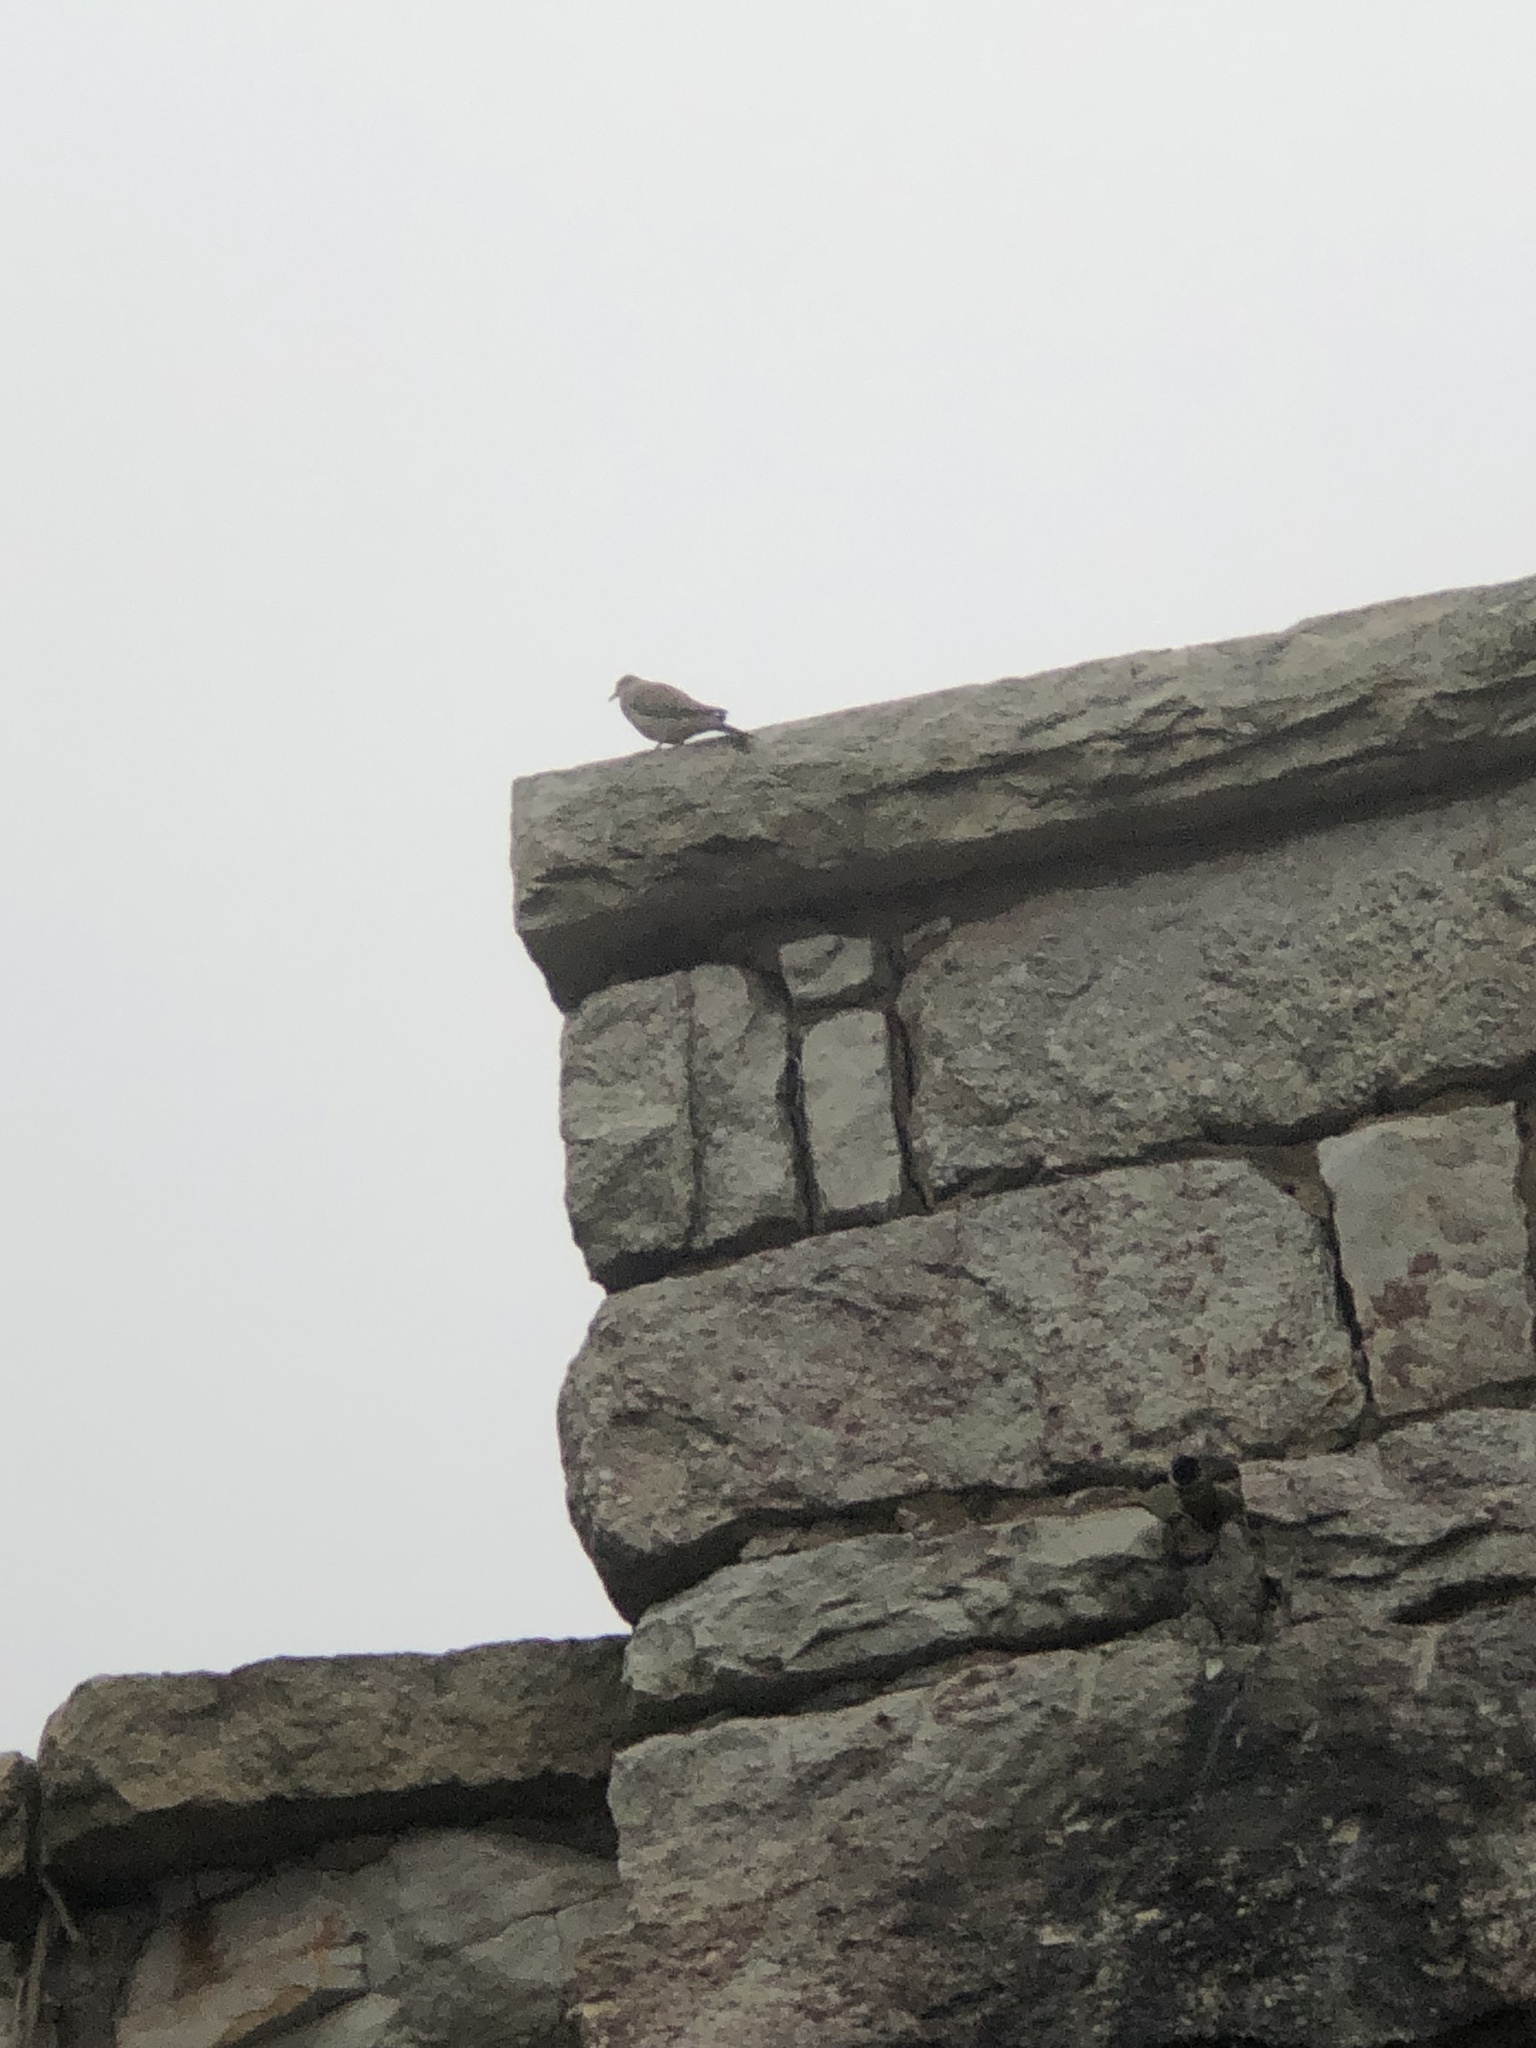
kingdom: Animalia
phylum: Chordata
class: Aves
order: Columbiformes
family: Columbidae
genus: Zenaida
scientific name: Zenaida macroura
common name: Mourning dove
